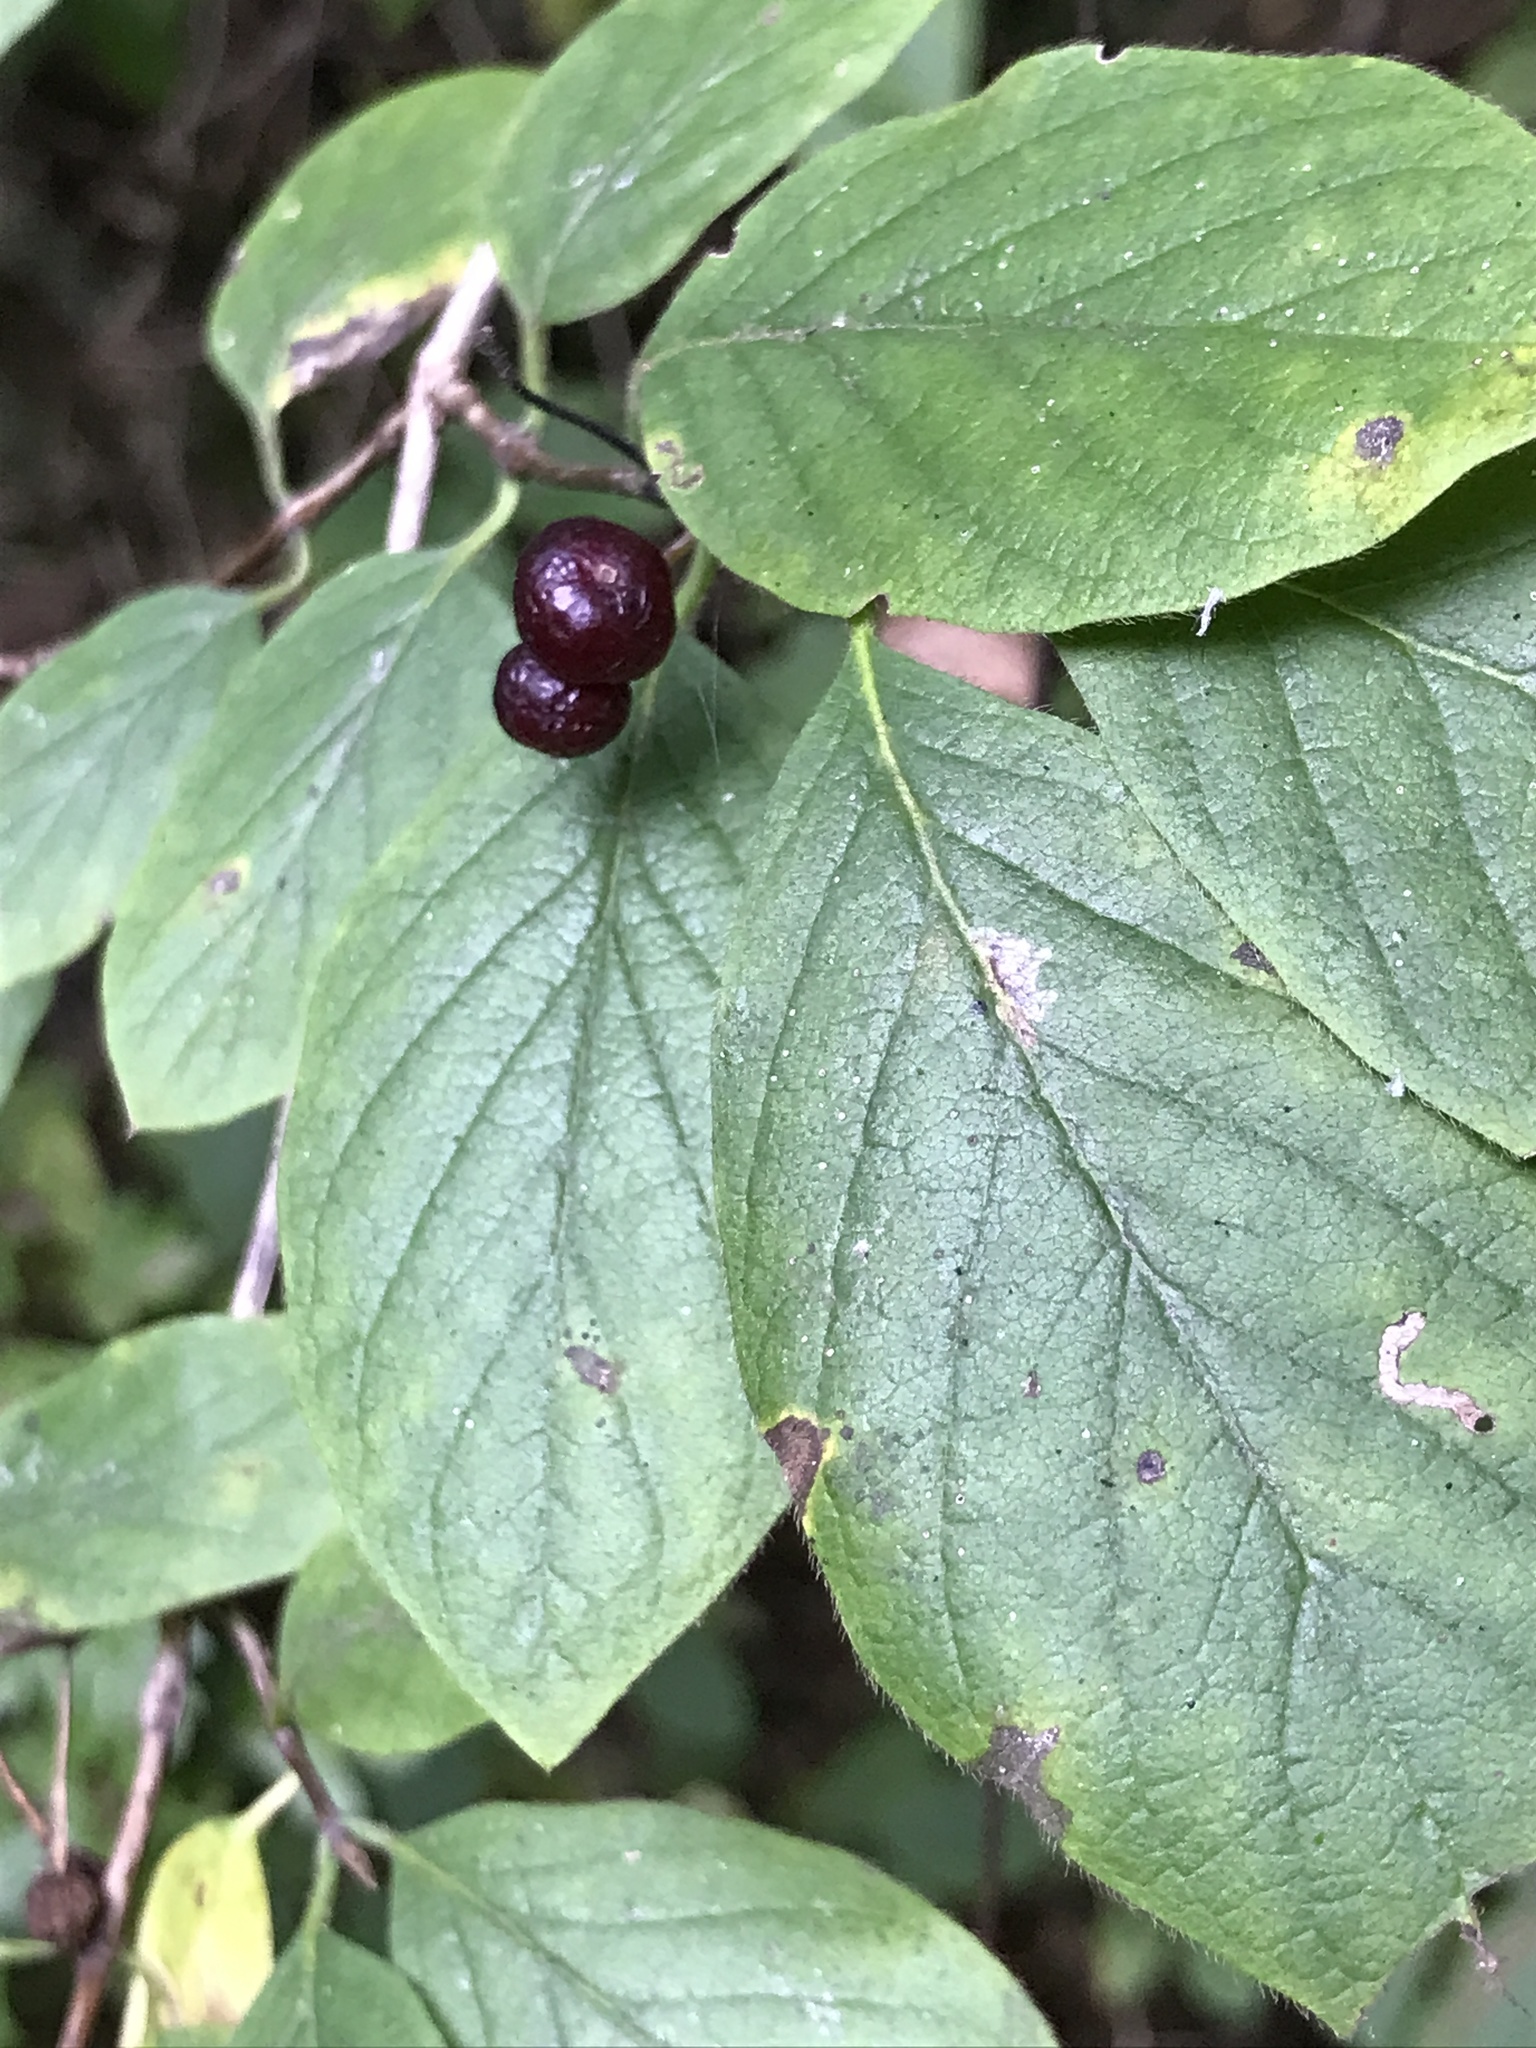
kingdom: Plantae
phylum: Tracheophyta
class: Magnoliopsida
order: Dipsacales
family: Caprifoliaceae
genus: Lonicera
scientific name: Lonicera xylosteum
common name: Fly honeysuckle
